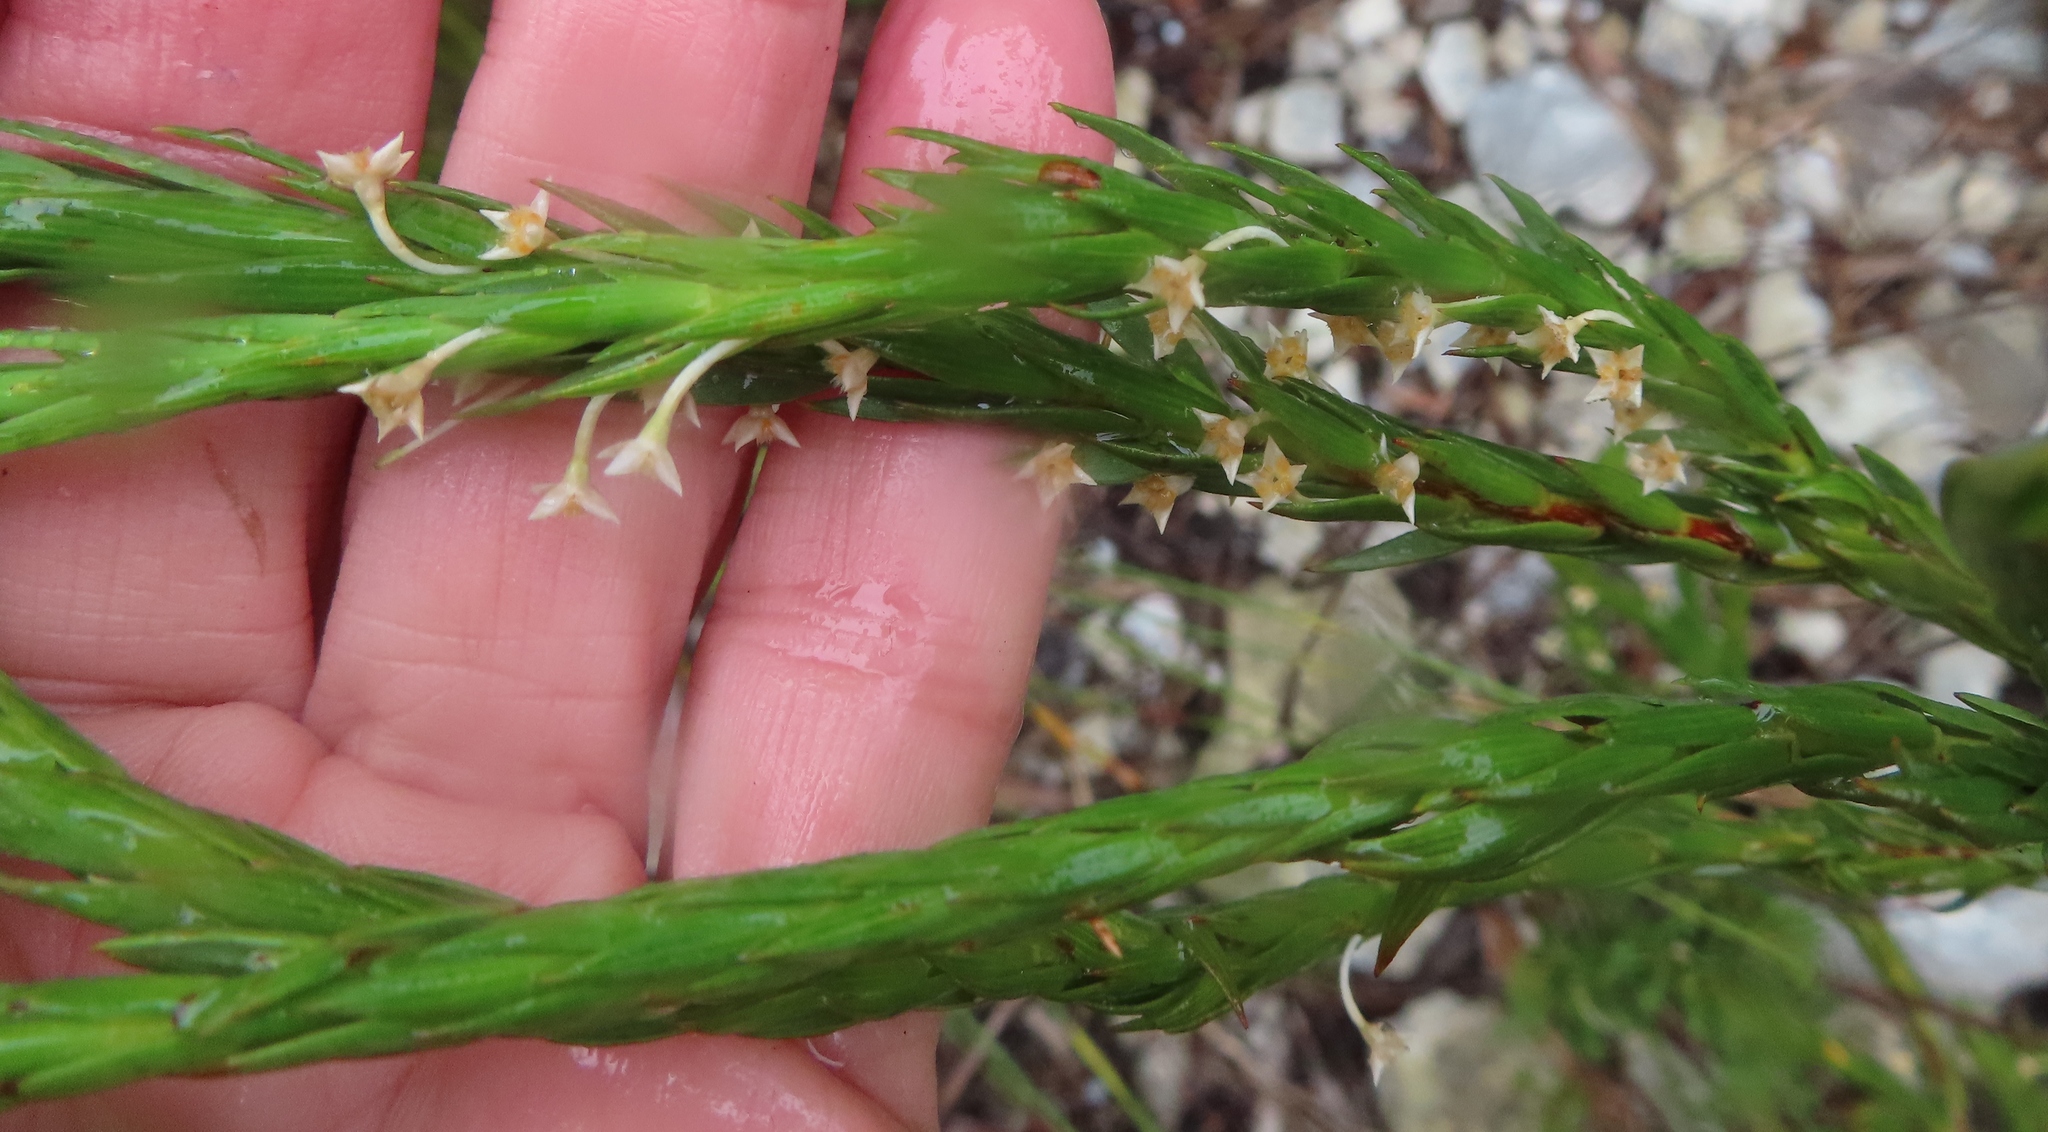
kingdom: Plantae
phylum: Tracheophyta
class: Magnoliopsida
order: Malvales
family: Thymelaeaceae
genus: Struthiola
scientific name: Struthiola striata
